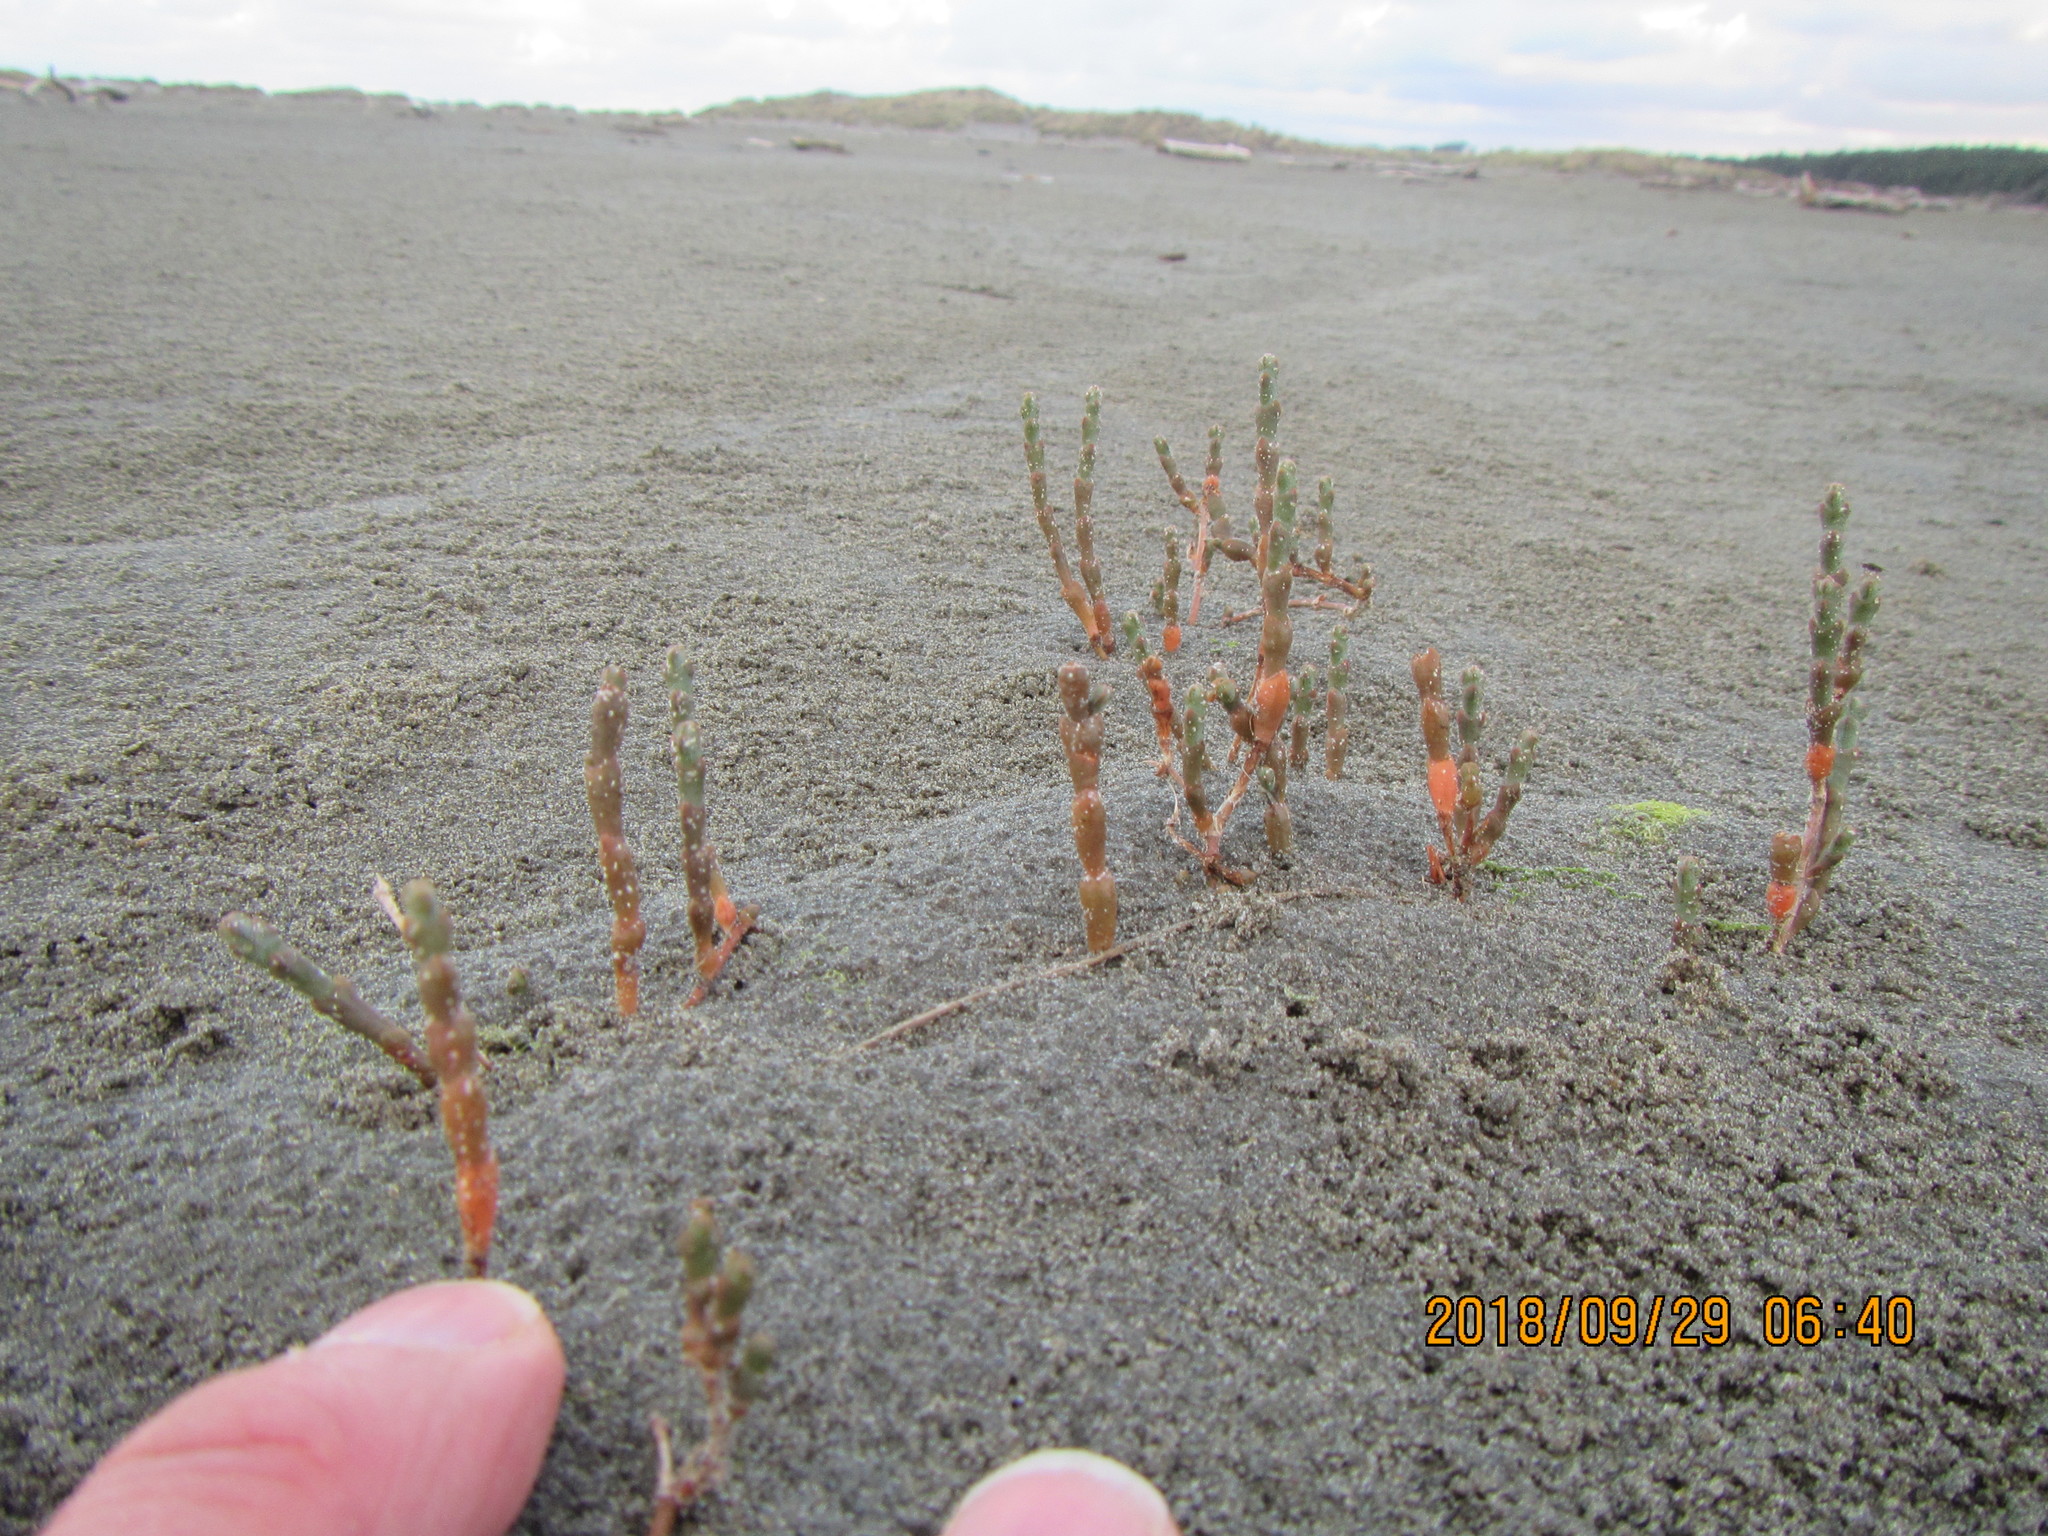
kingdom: Plantae
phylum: Tracheophyta
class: Magnoliopsida
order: Caryophyllales
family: Amaranthaceae
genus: Salicornia
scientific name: Salicornia quinqueflora
